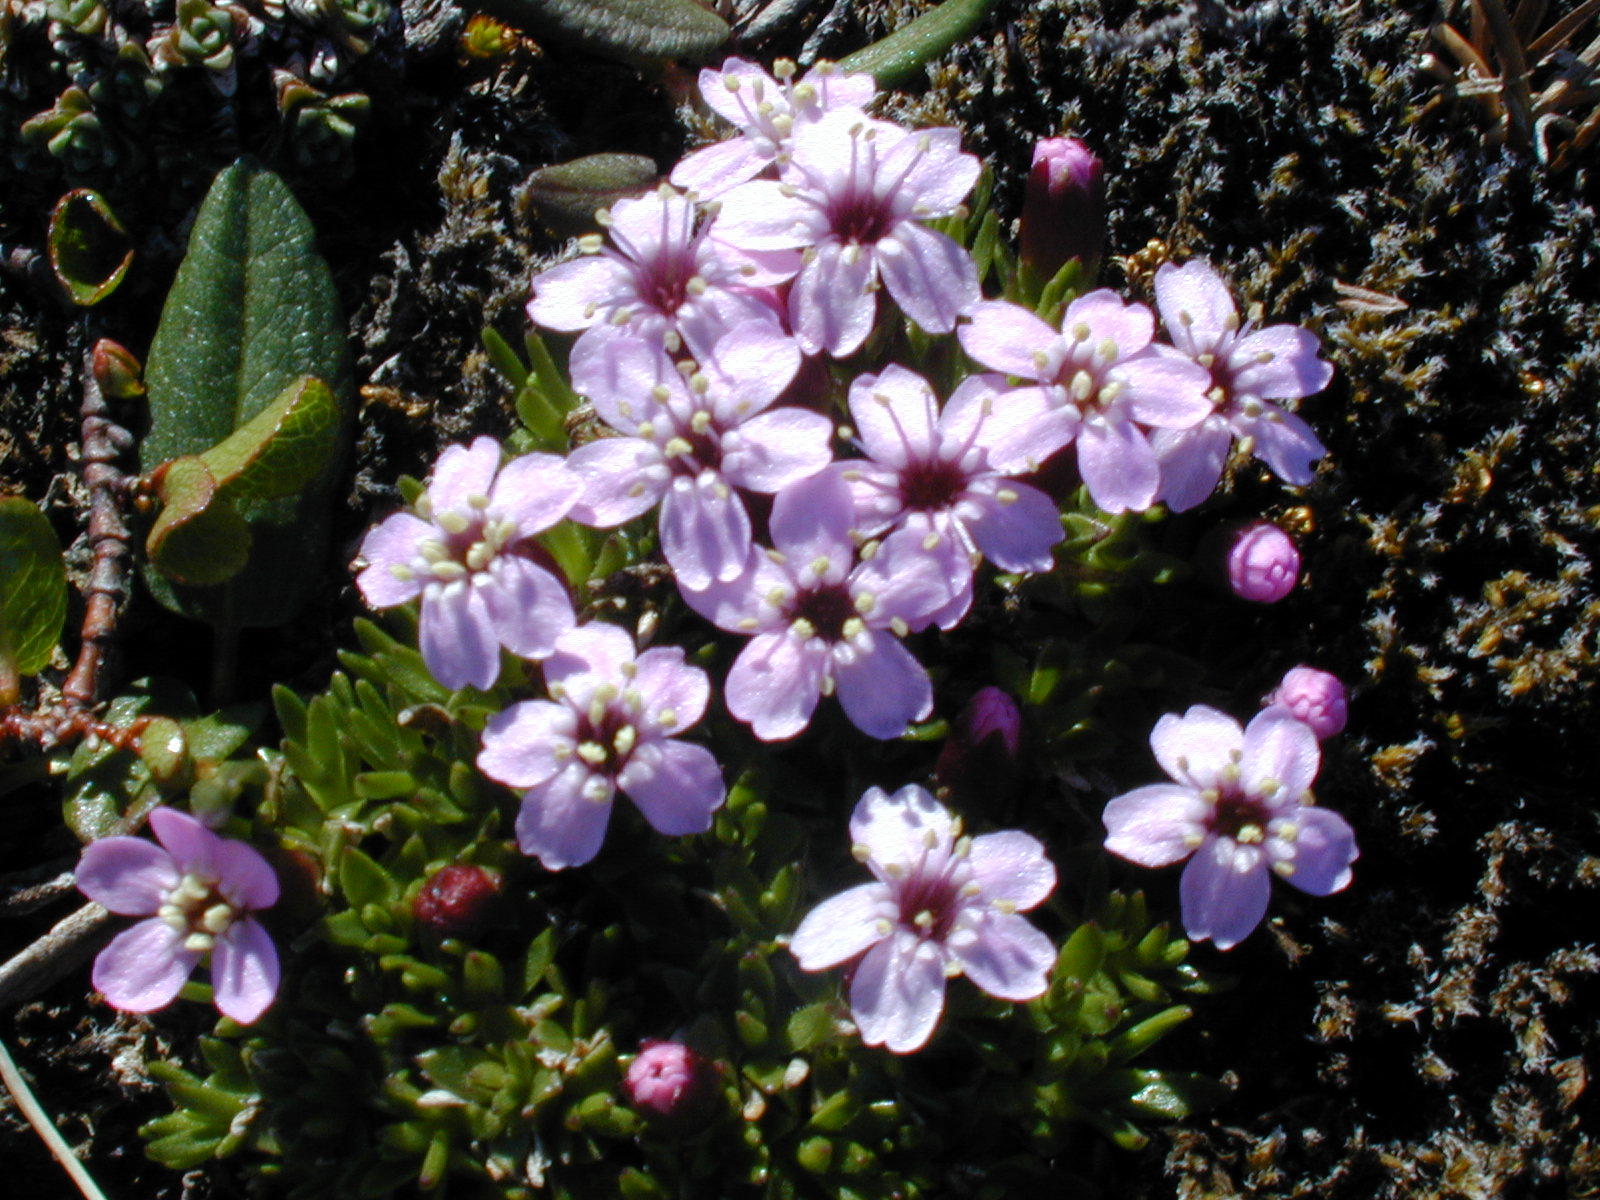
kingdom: Plantae
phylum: Tracheophyta
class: Magnoliopsida
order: Caryophyllales
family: Caryophyllaceae
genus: Silene
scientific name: Silene acaulis
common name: Moss campion
